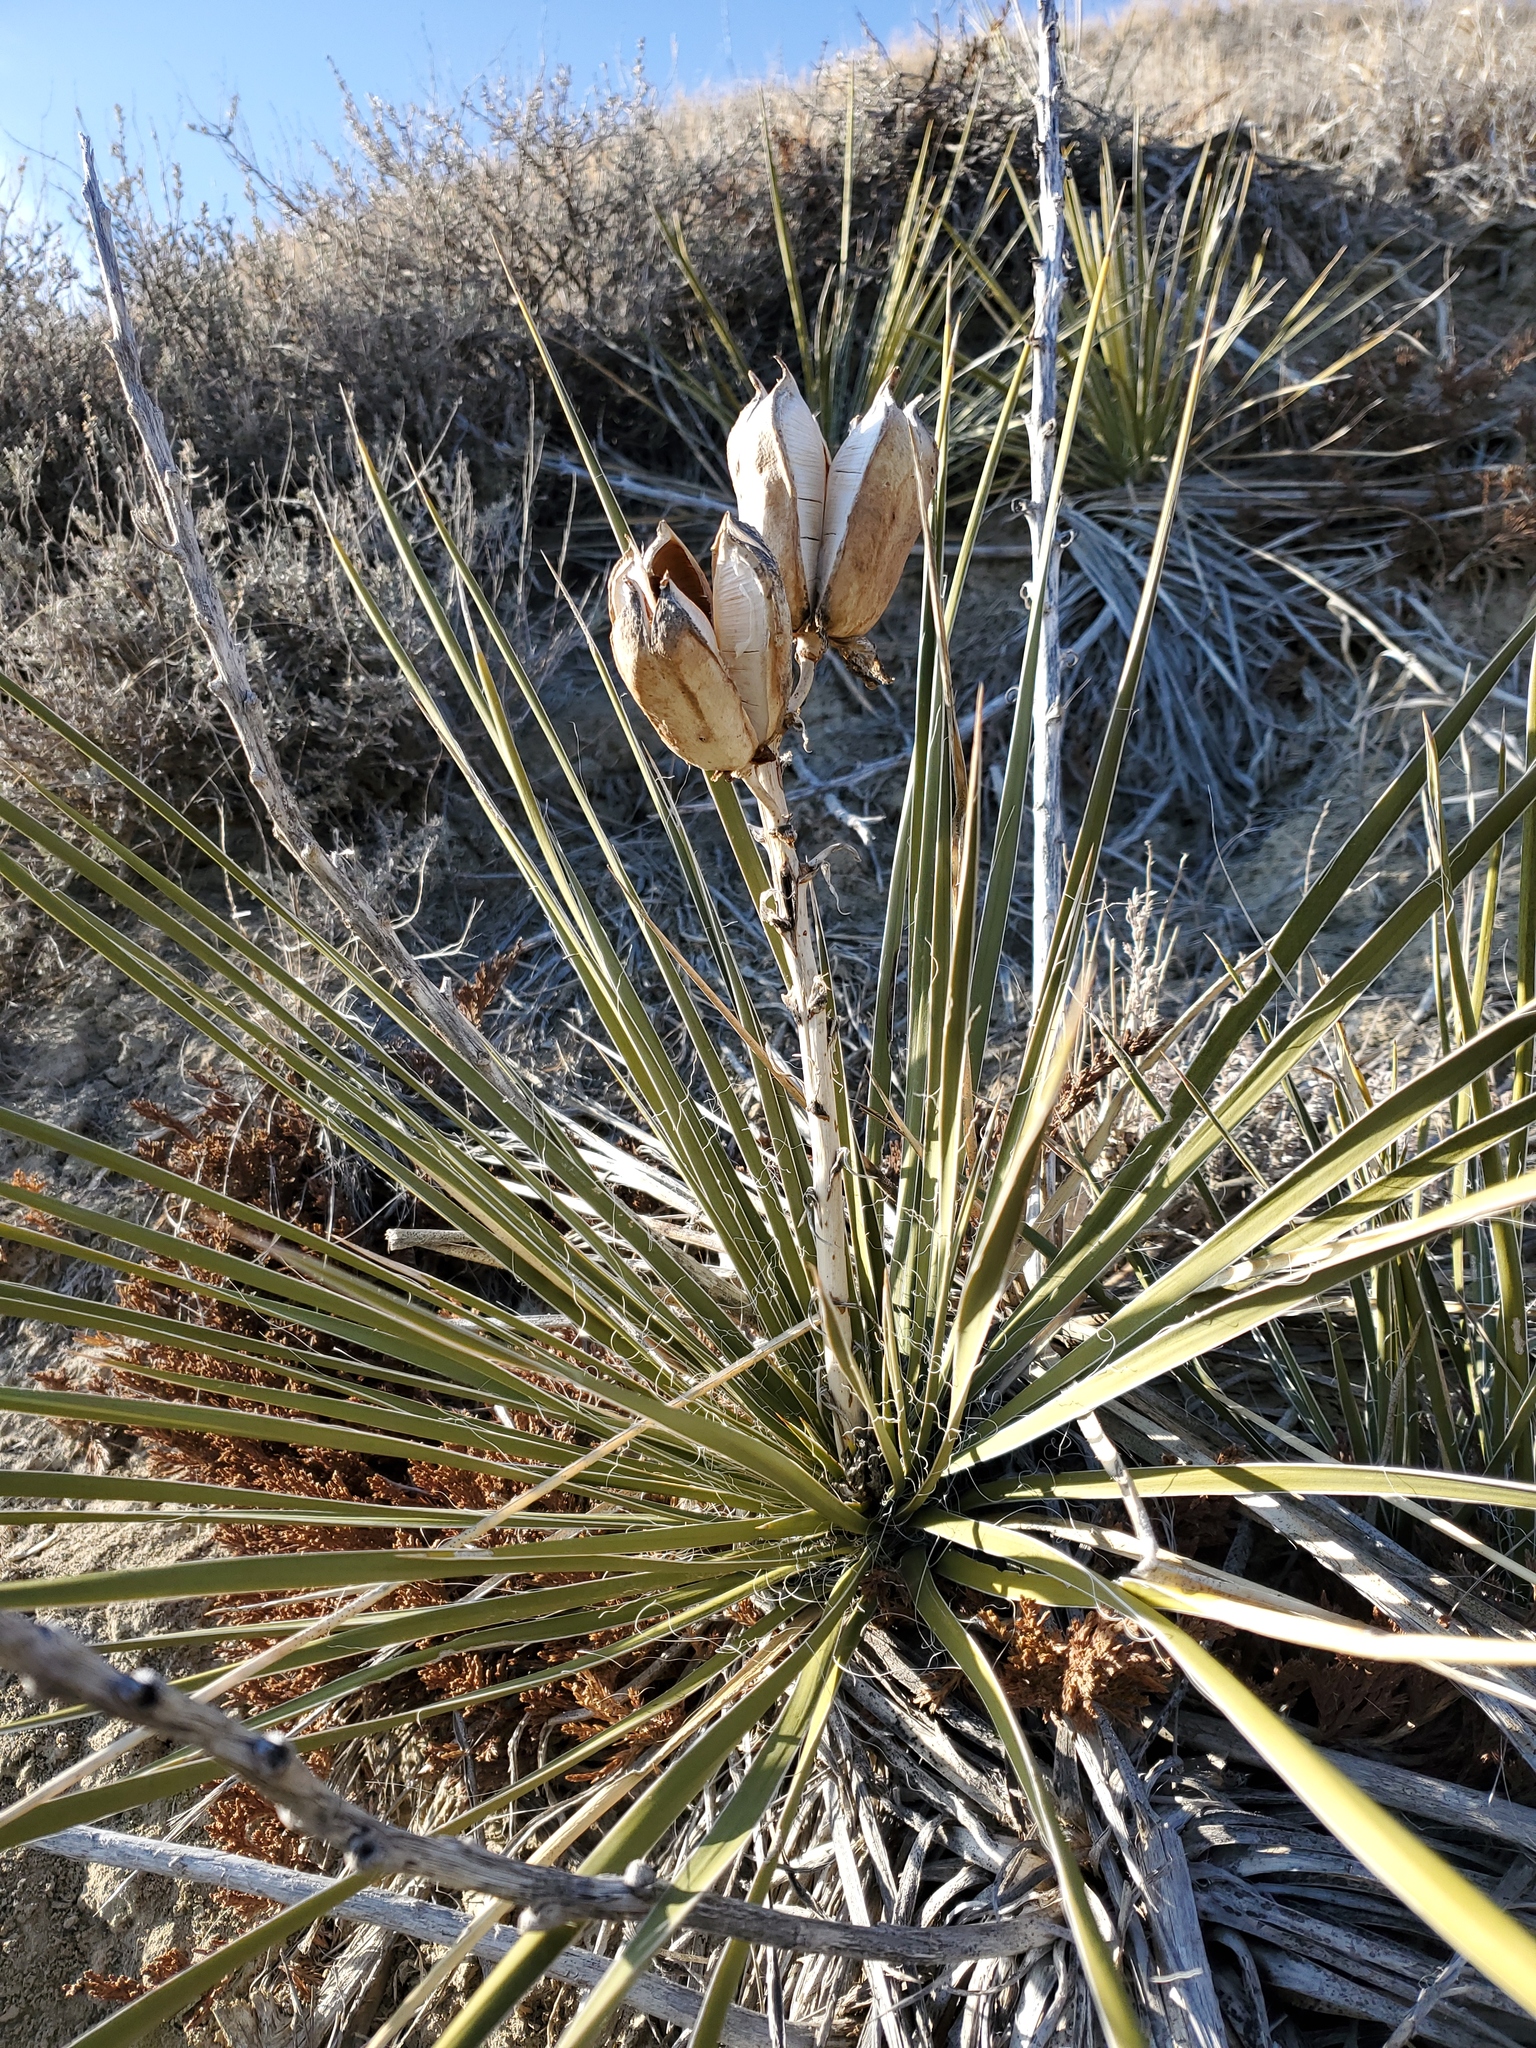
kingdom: Plantae
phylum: Tracheophyta
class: Liliopsida
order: Asparagales
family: Asparagaceae
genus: Yucca
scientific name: Yucca glauca
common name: Great plains yucca
